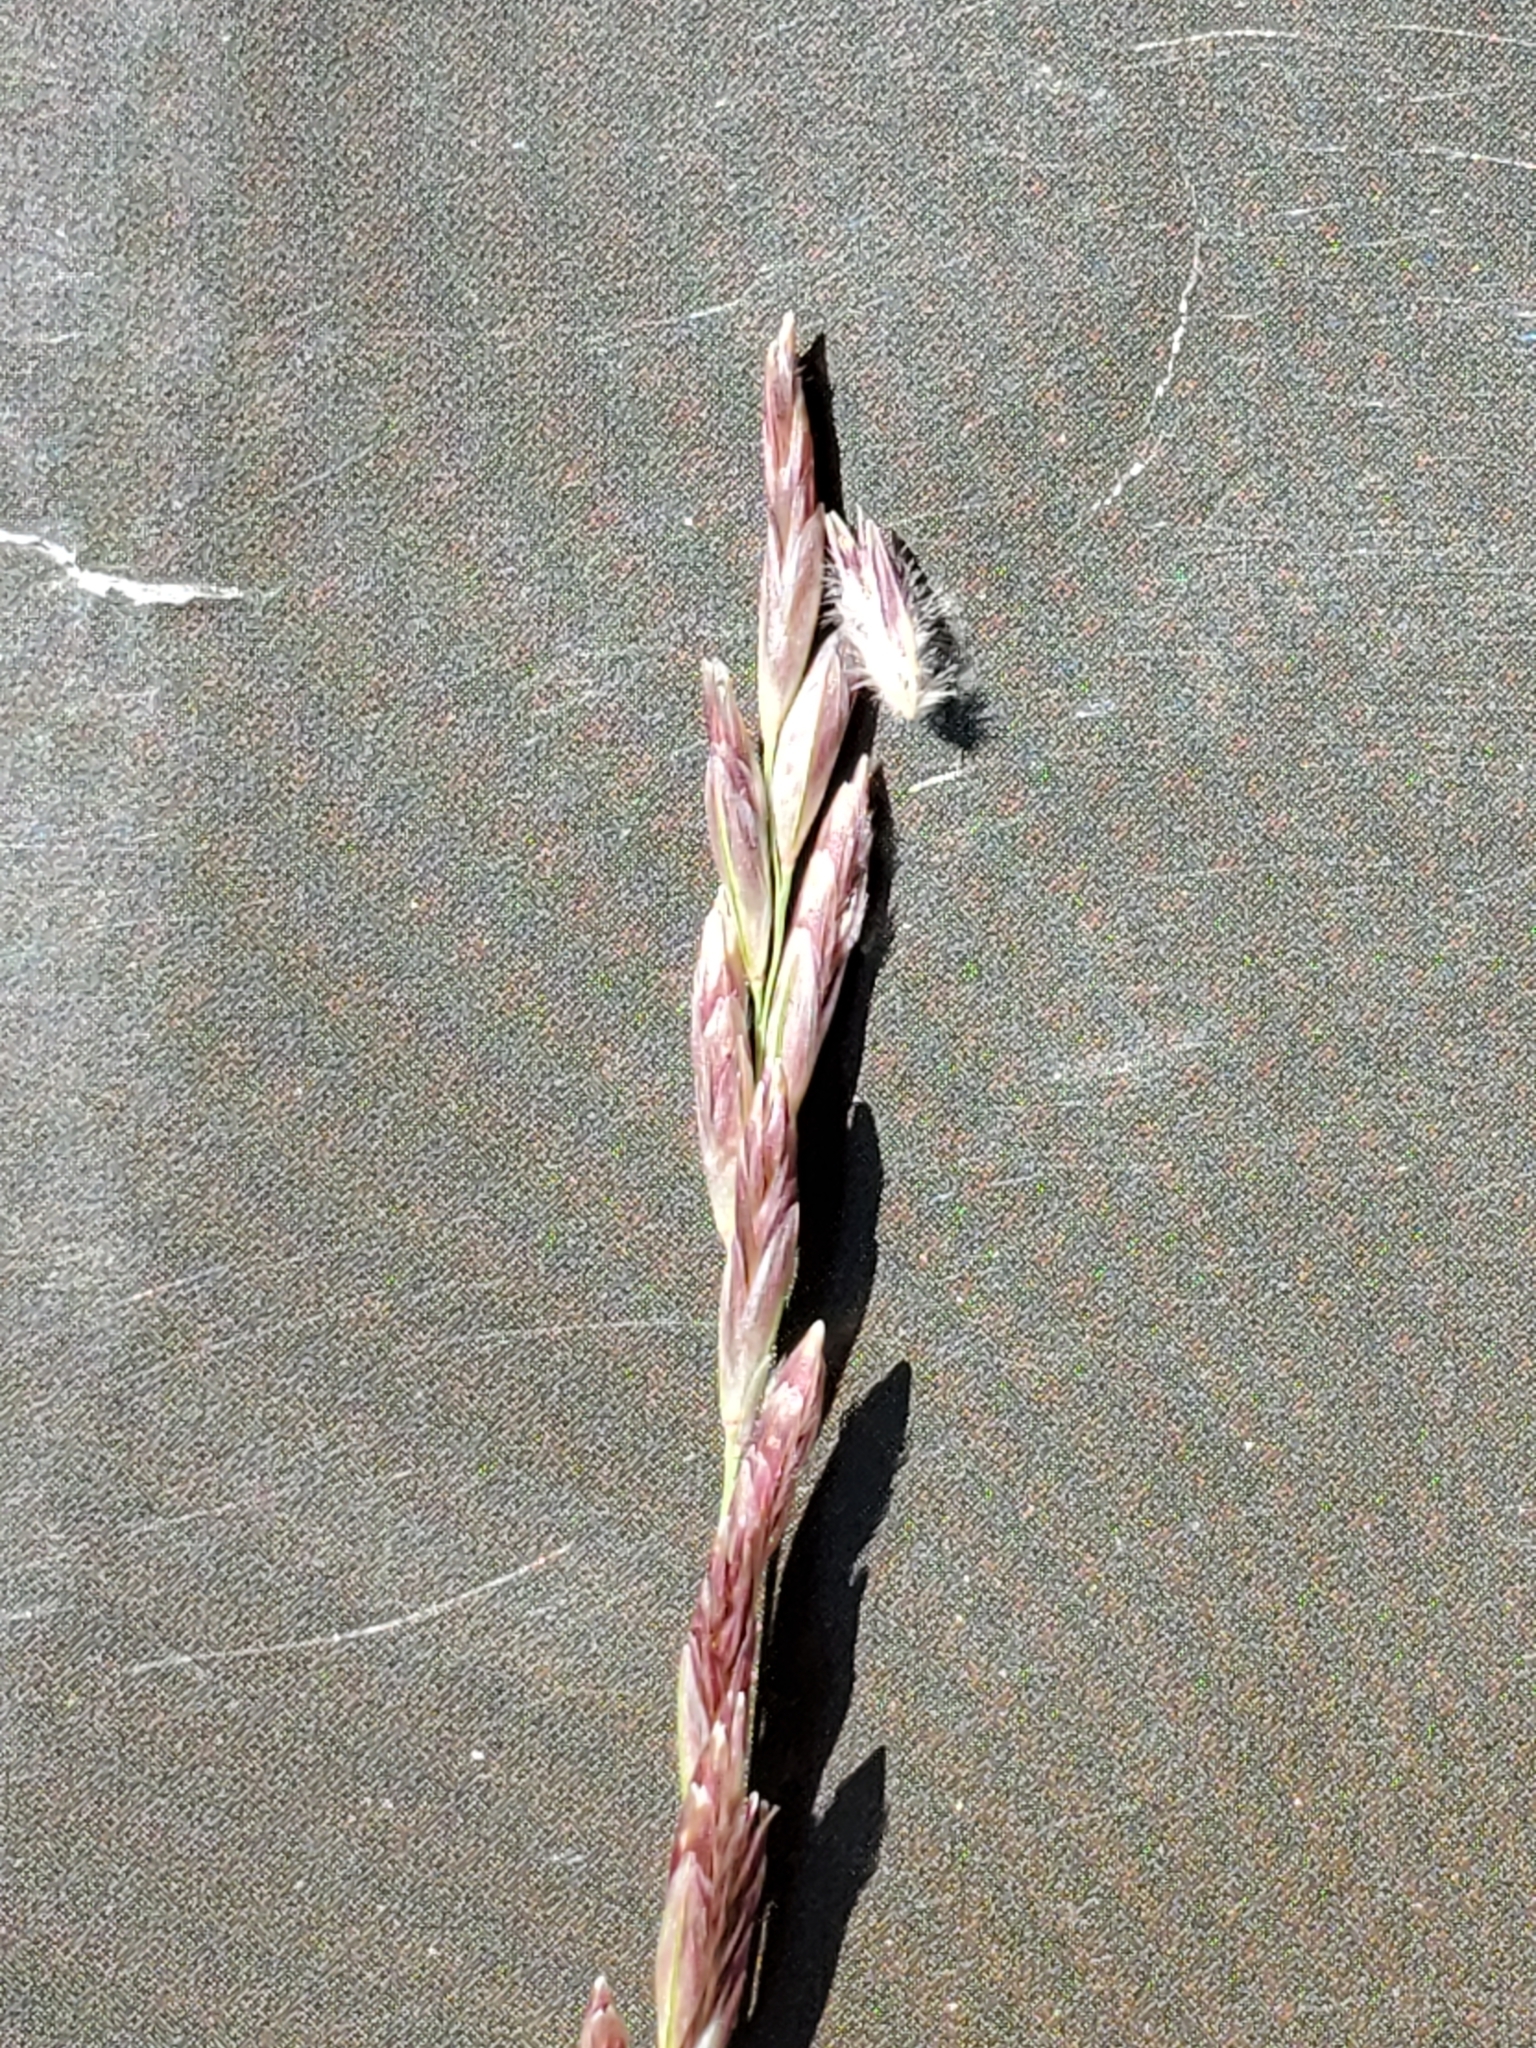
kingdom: Plantae
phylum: Tracheophyta
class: Liliopsida
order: Poales
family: Poaceae
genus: Tridentopsis
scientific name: Tridentopsis mutica
